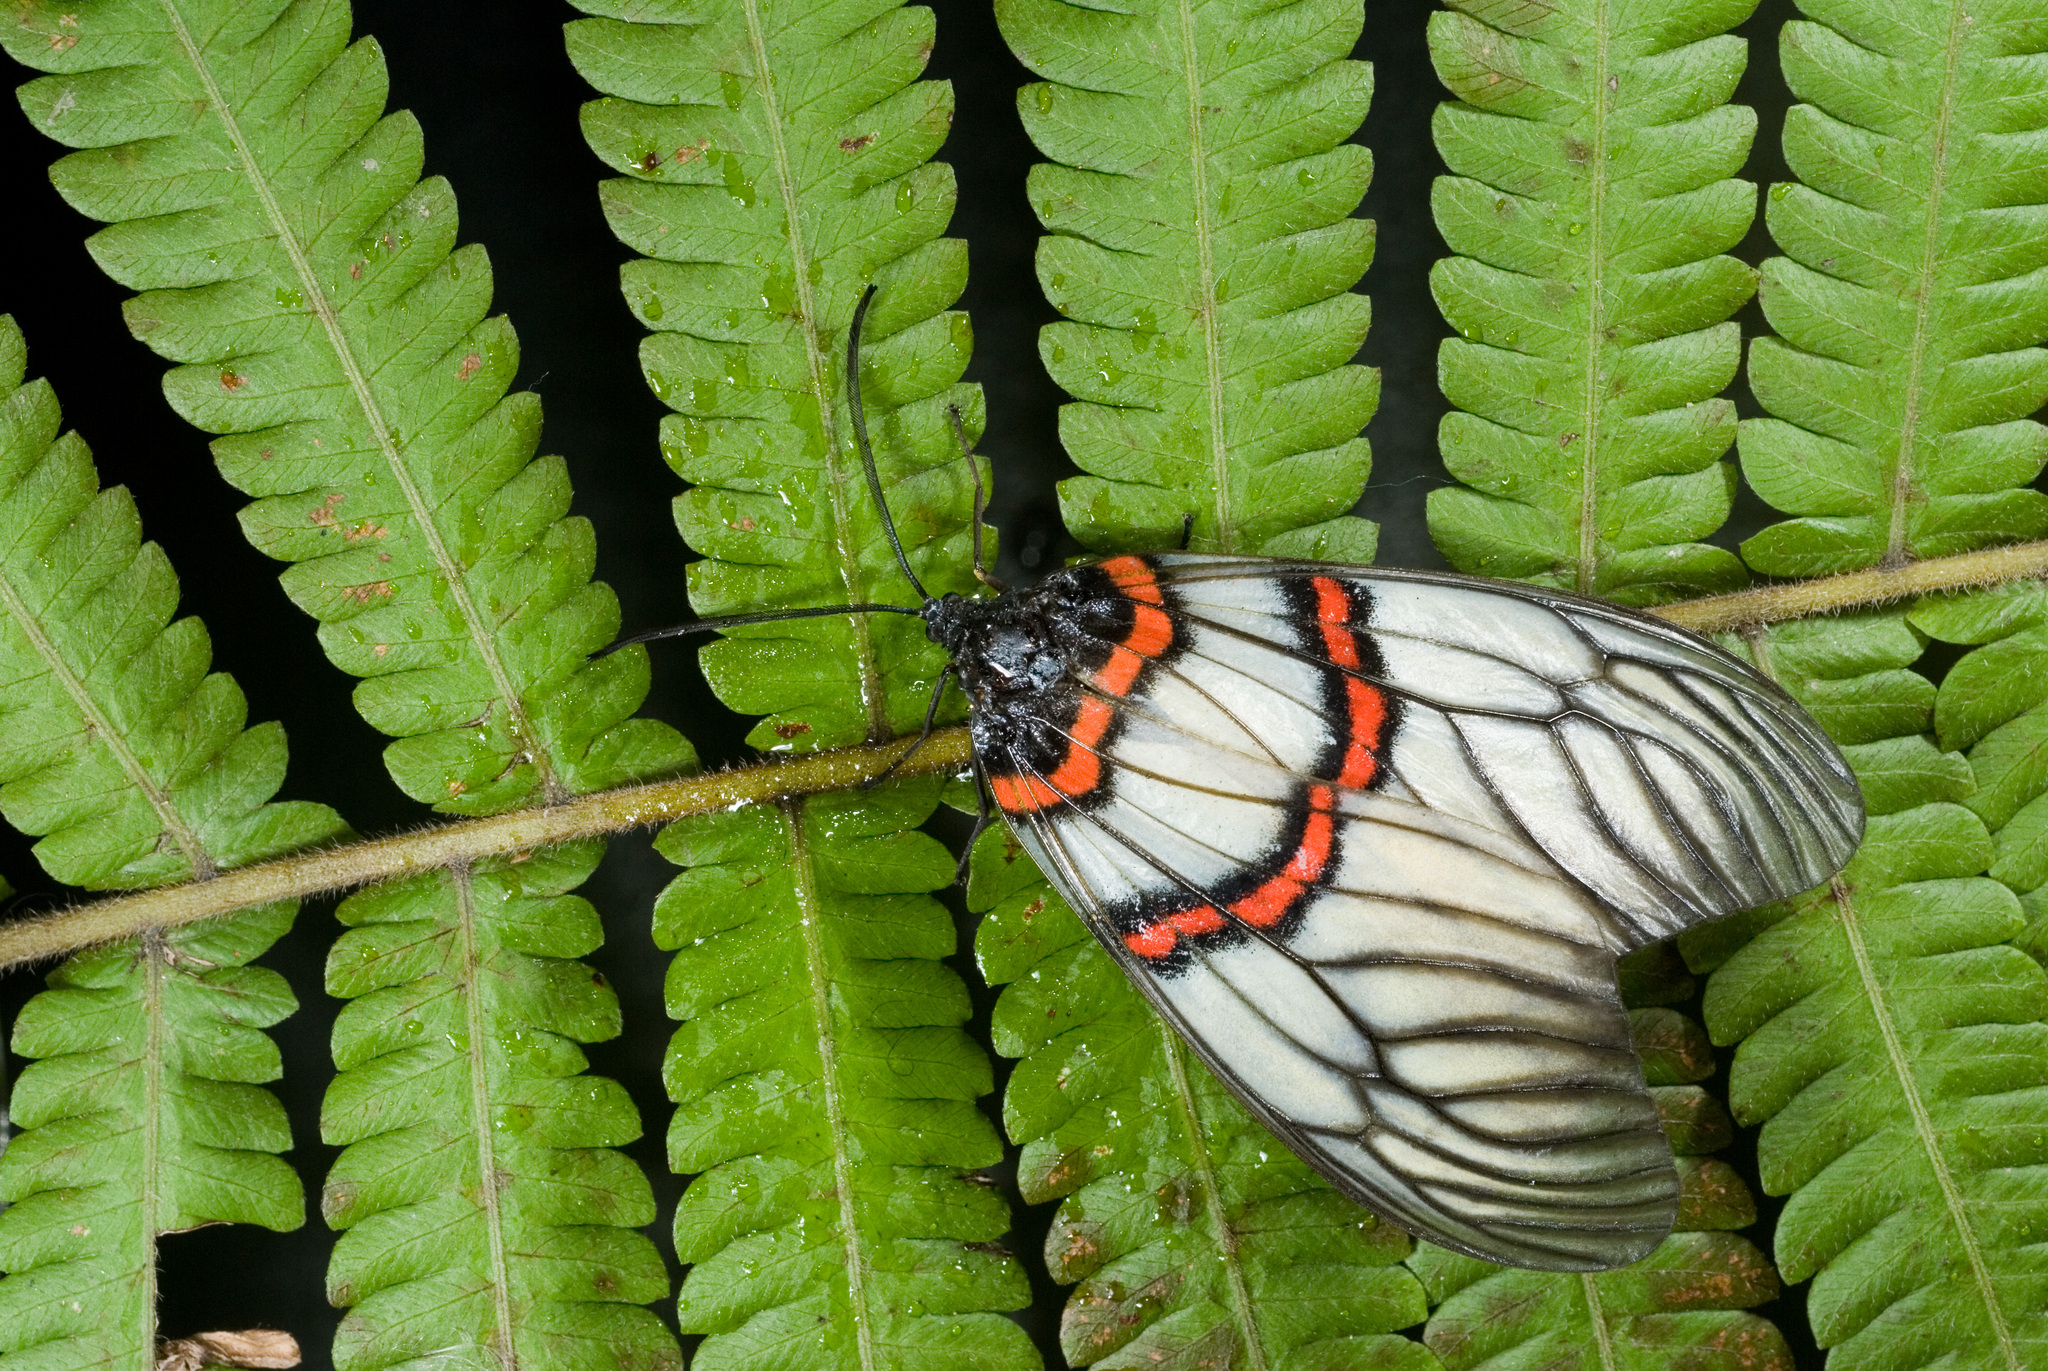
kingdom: Animalia
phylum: Arthropoda
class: Insecta
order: Lepidoptera
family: Zygaenidae
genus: Achelura
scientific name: Achelura sanguifasciata
